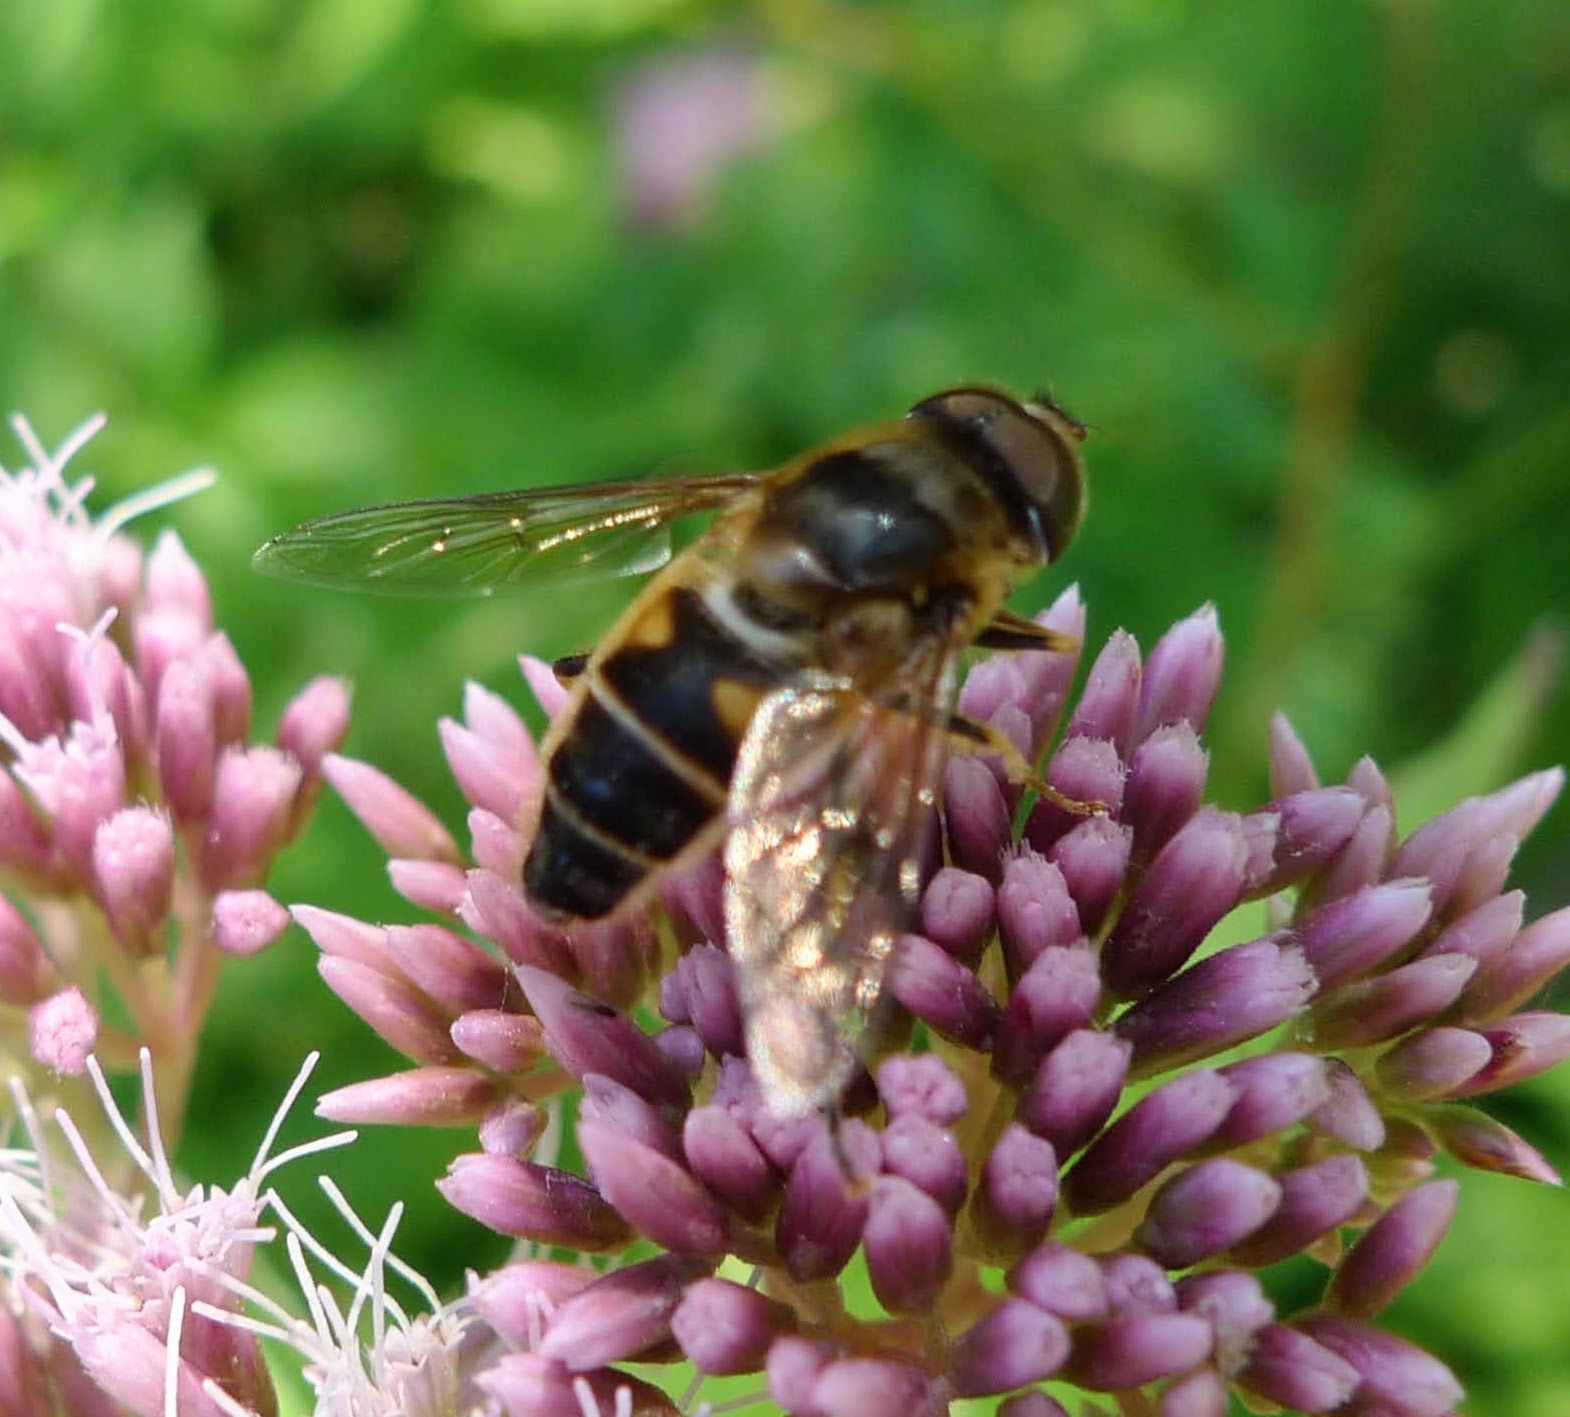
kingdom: Animalia
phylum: Arthropoda
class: Insecta
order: Diptera
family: Syrphidae
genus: Eristalis
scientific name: Eristalis pertinax
